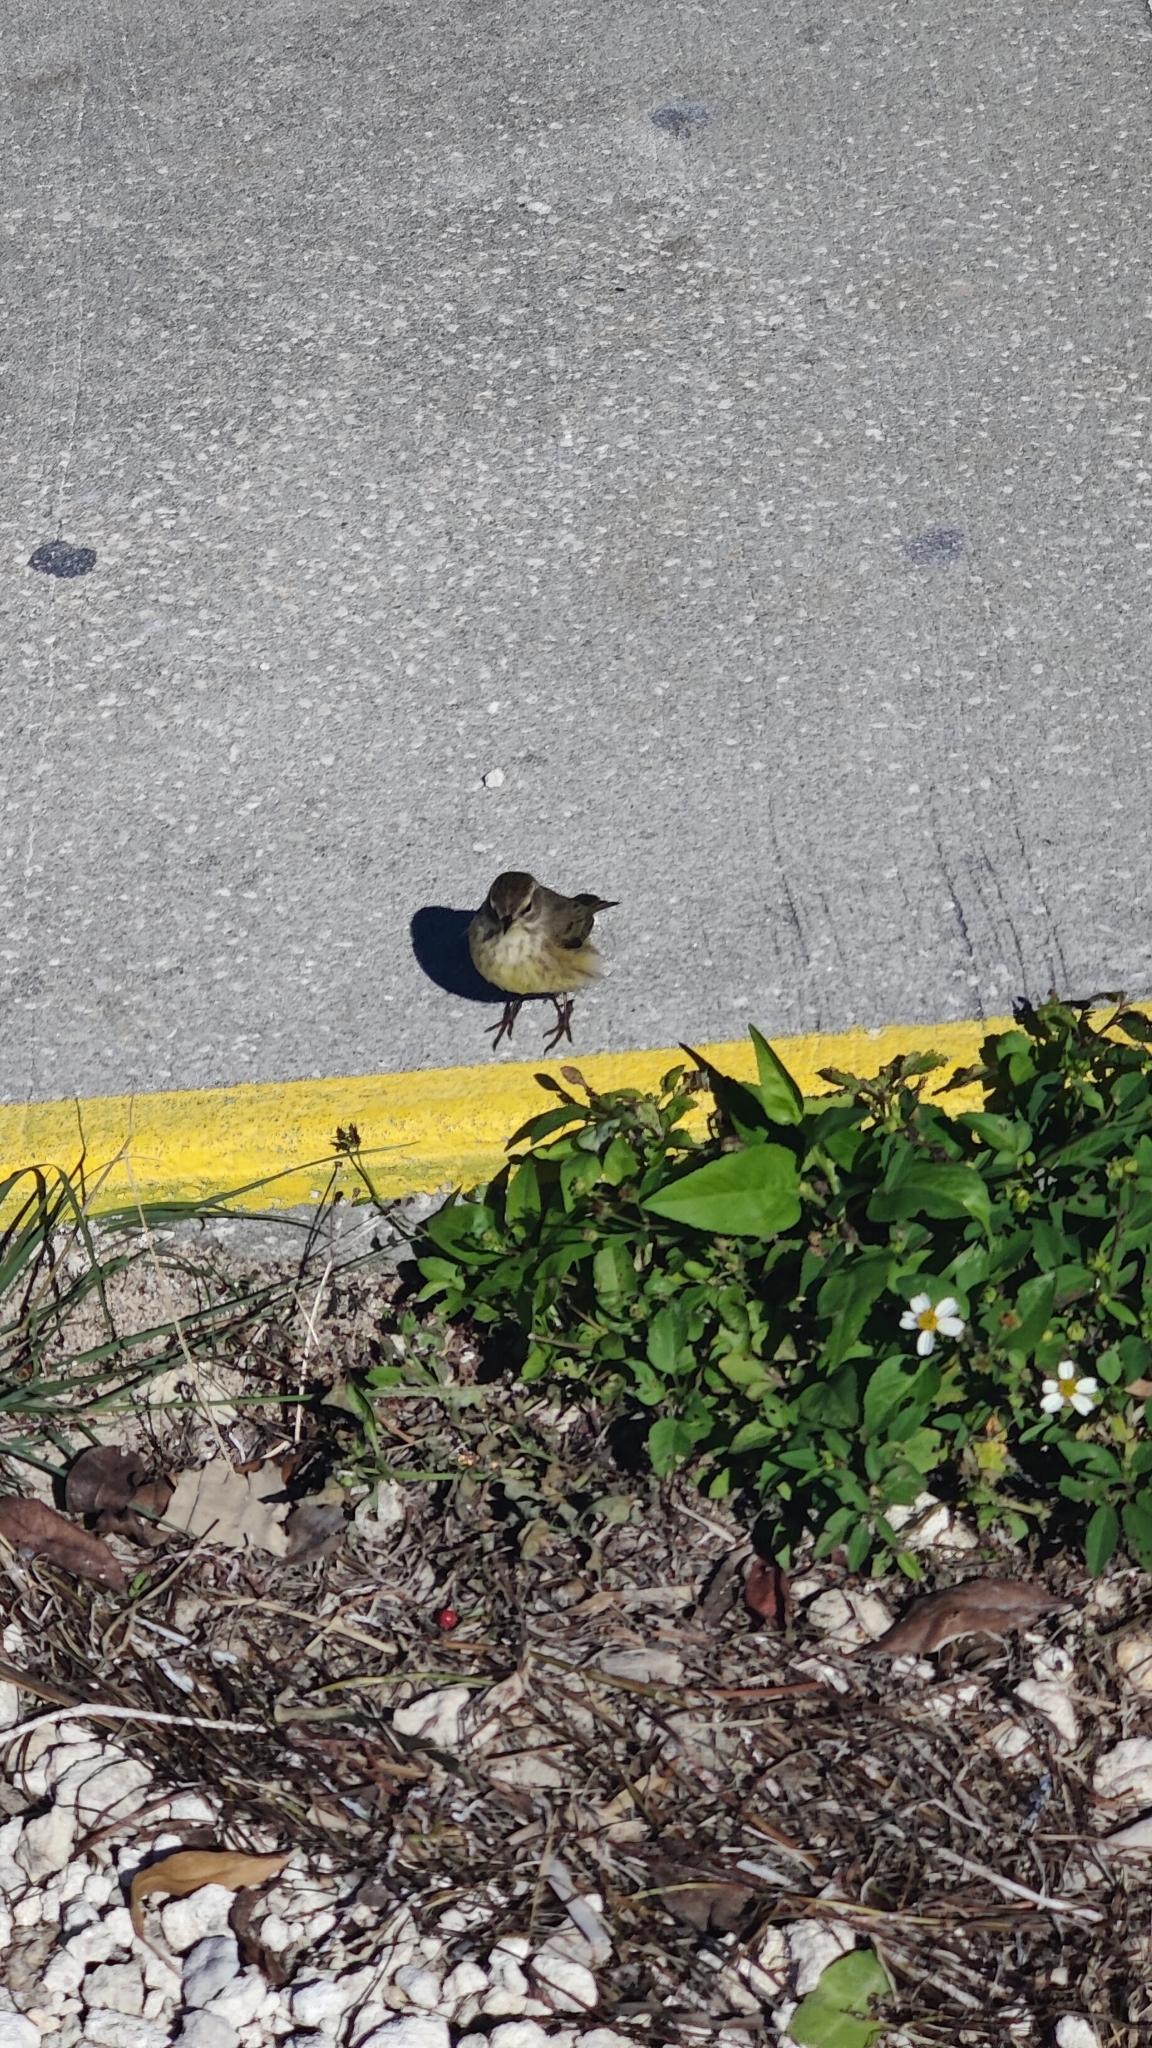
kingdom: Animalia
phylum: Chordata
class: Aves
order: Passeriformes
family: Parulidae
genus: Setophaga
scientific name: Setophaga palmarum
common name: Palm warbler
